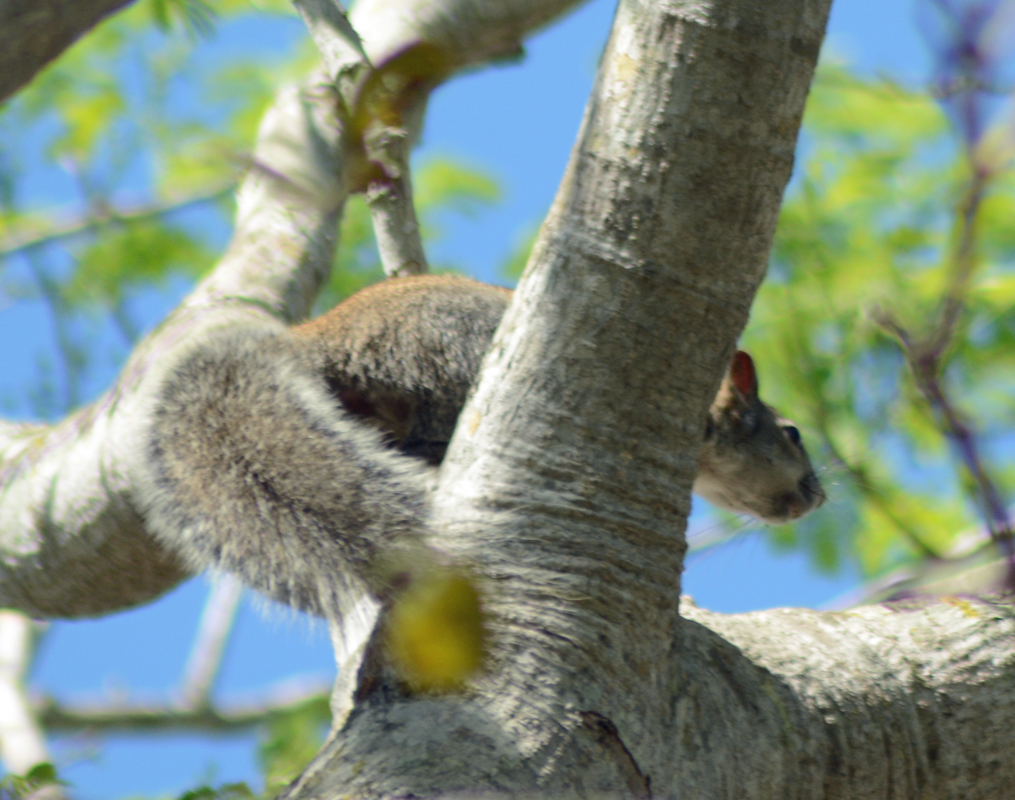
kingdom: Animalia
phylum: Chordata
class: Mammalia
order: Rodentia
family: Sciuridae
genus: Sciurus
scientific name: Sciurus colliaei
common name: Collie's squirrel
